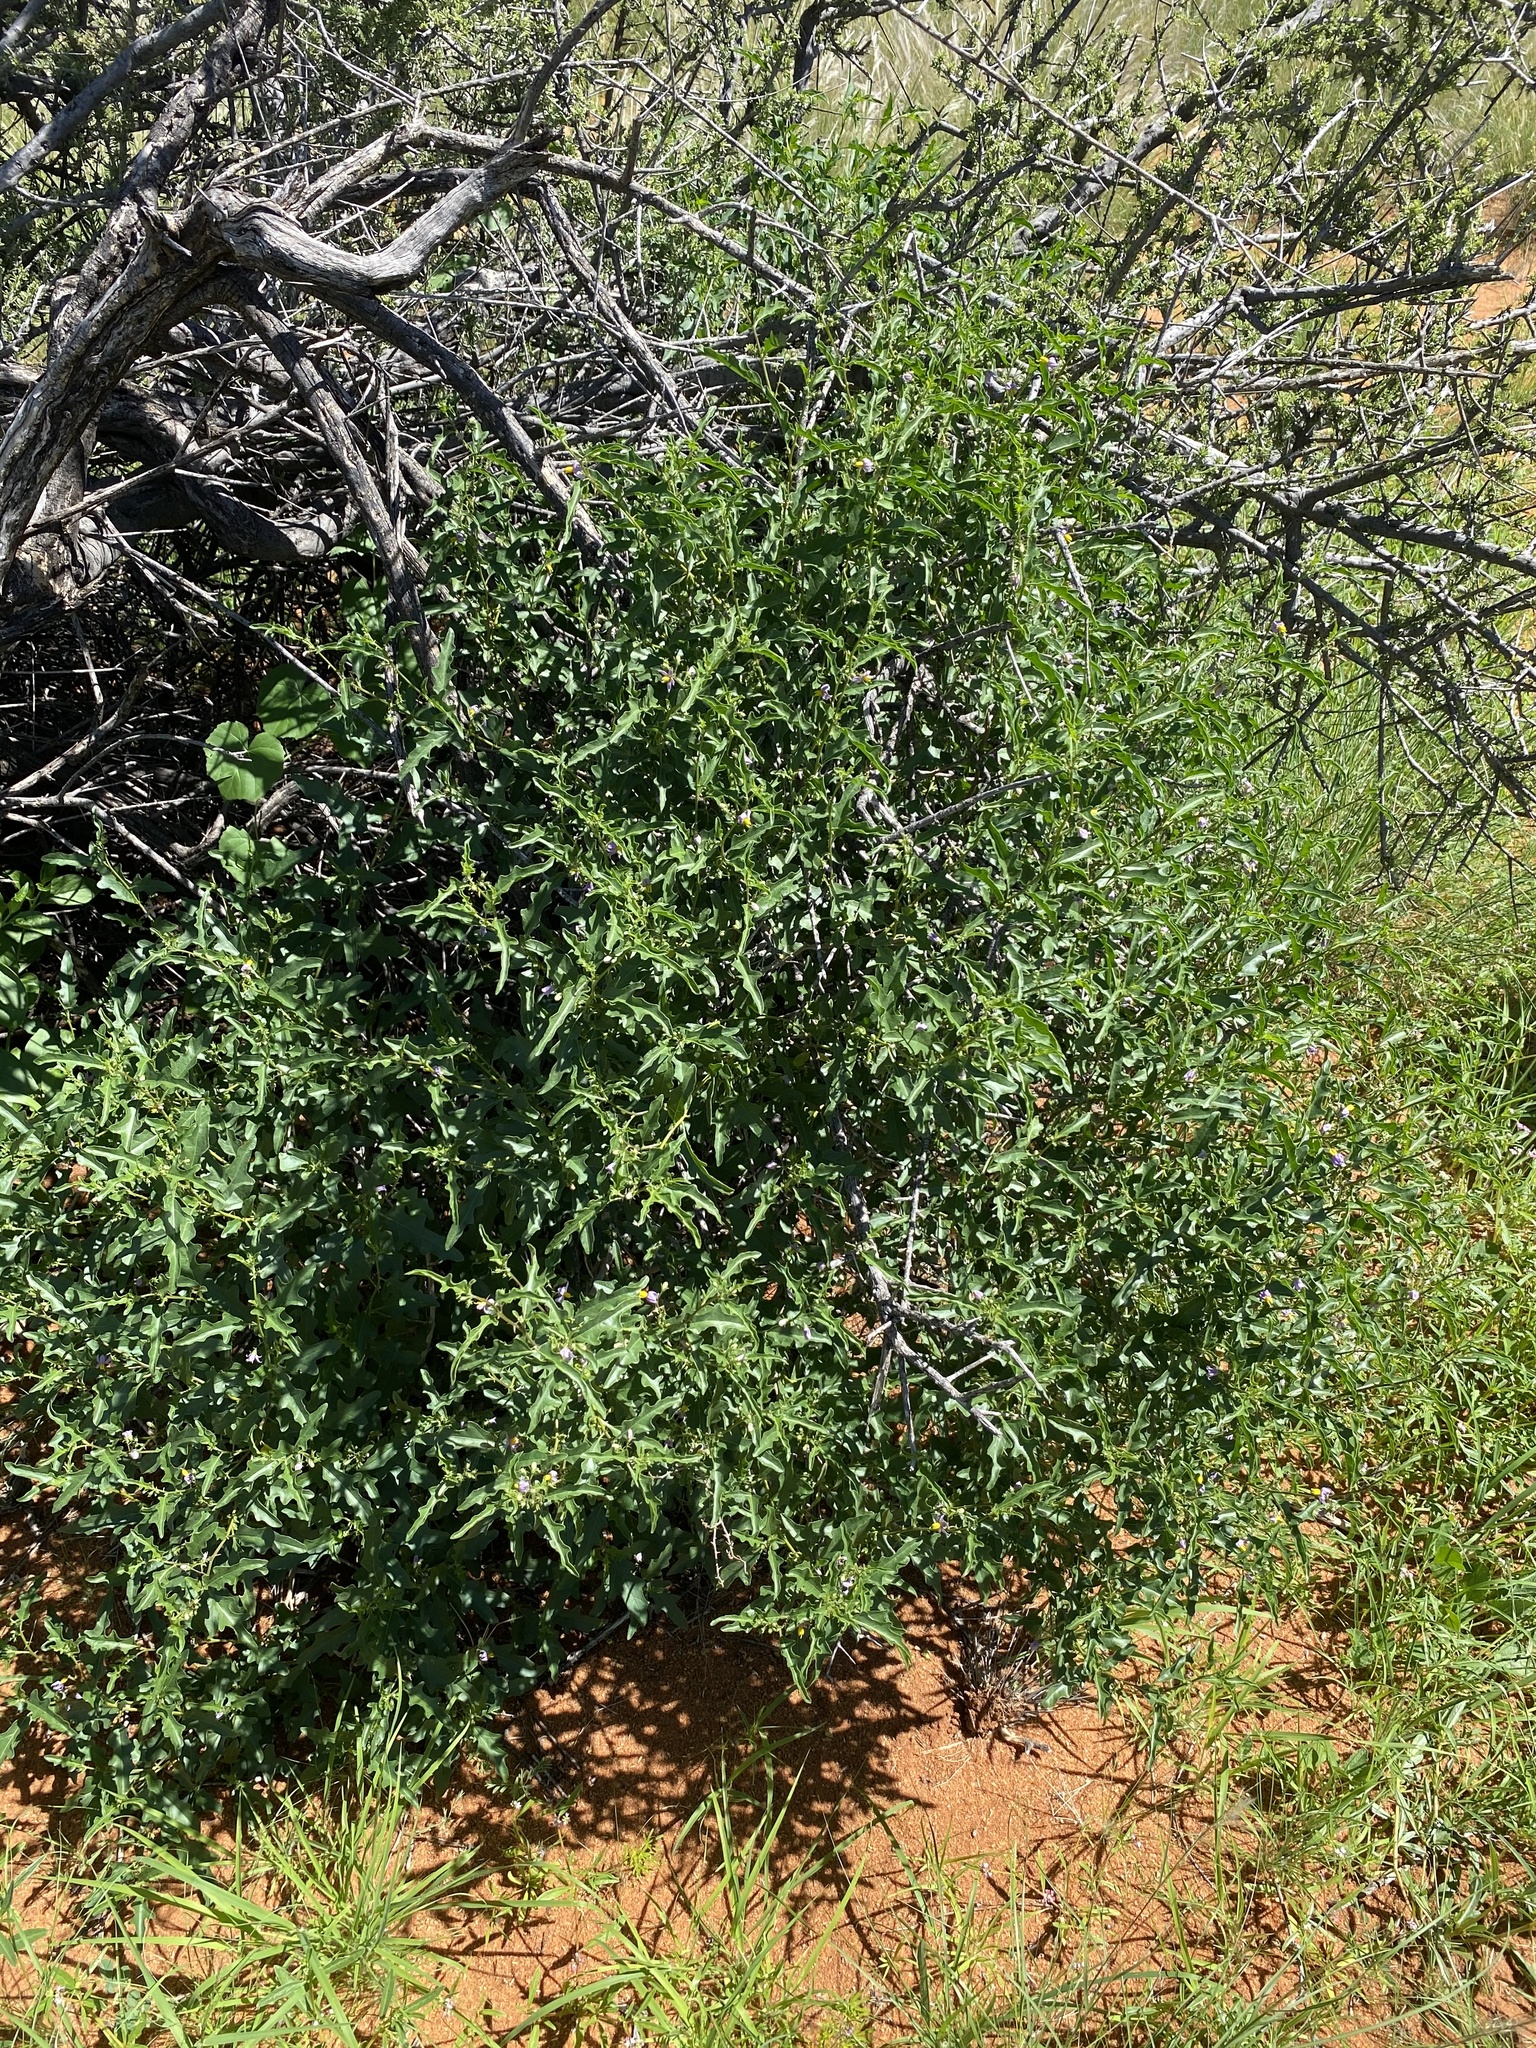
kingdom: Plantae
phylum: Tracheophyta
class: Magnoliopsida
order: Solanales
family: Solanaceae
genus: Solanum
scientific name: Solanum capense
